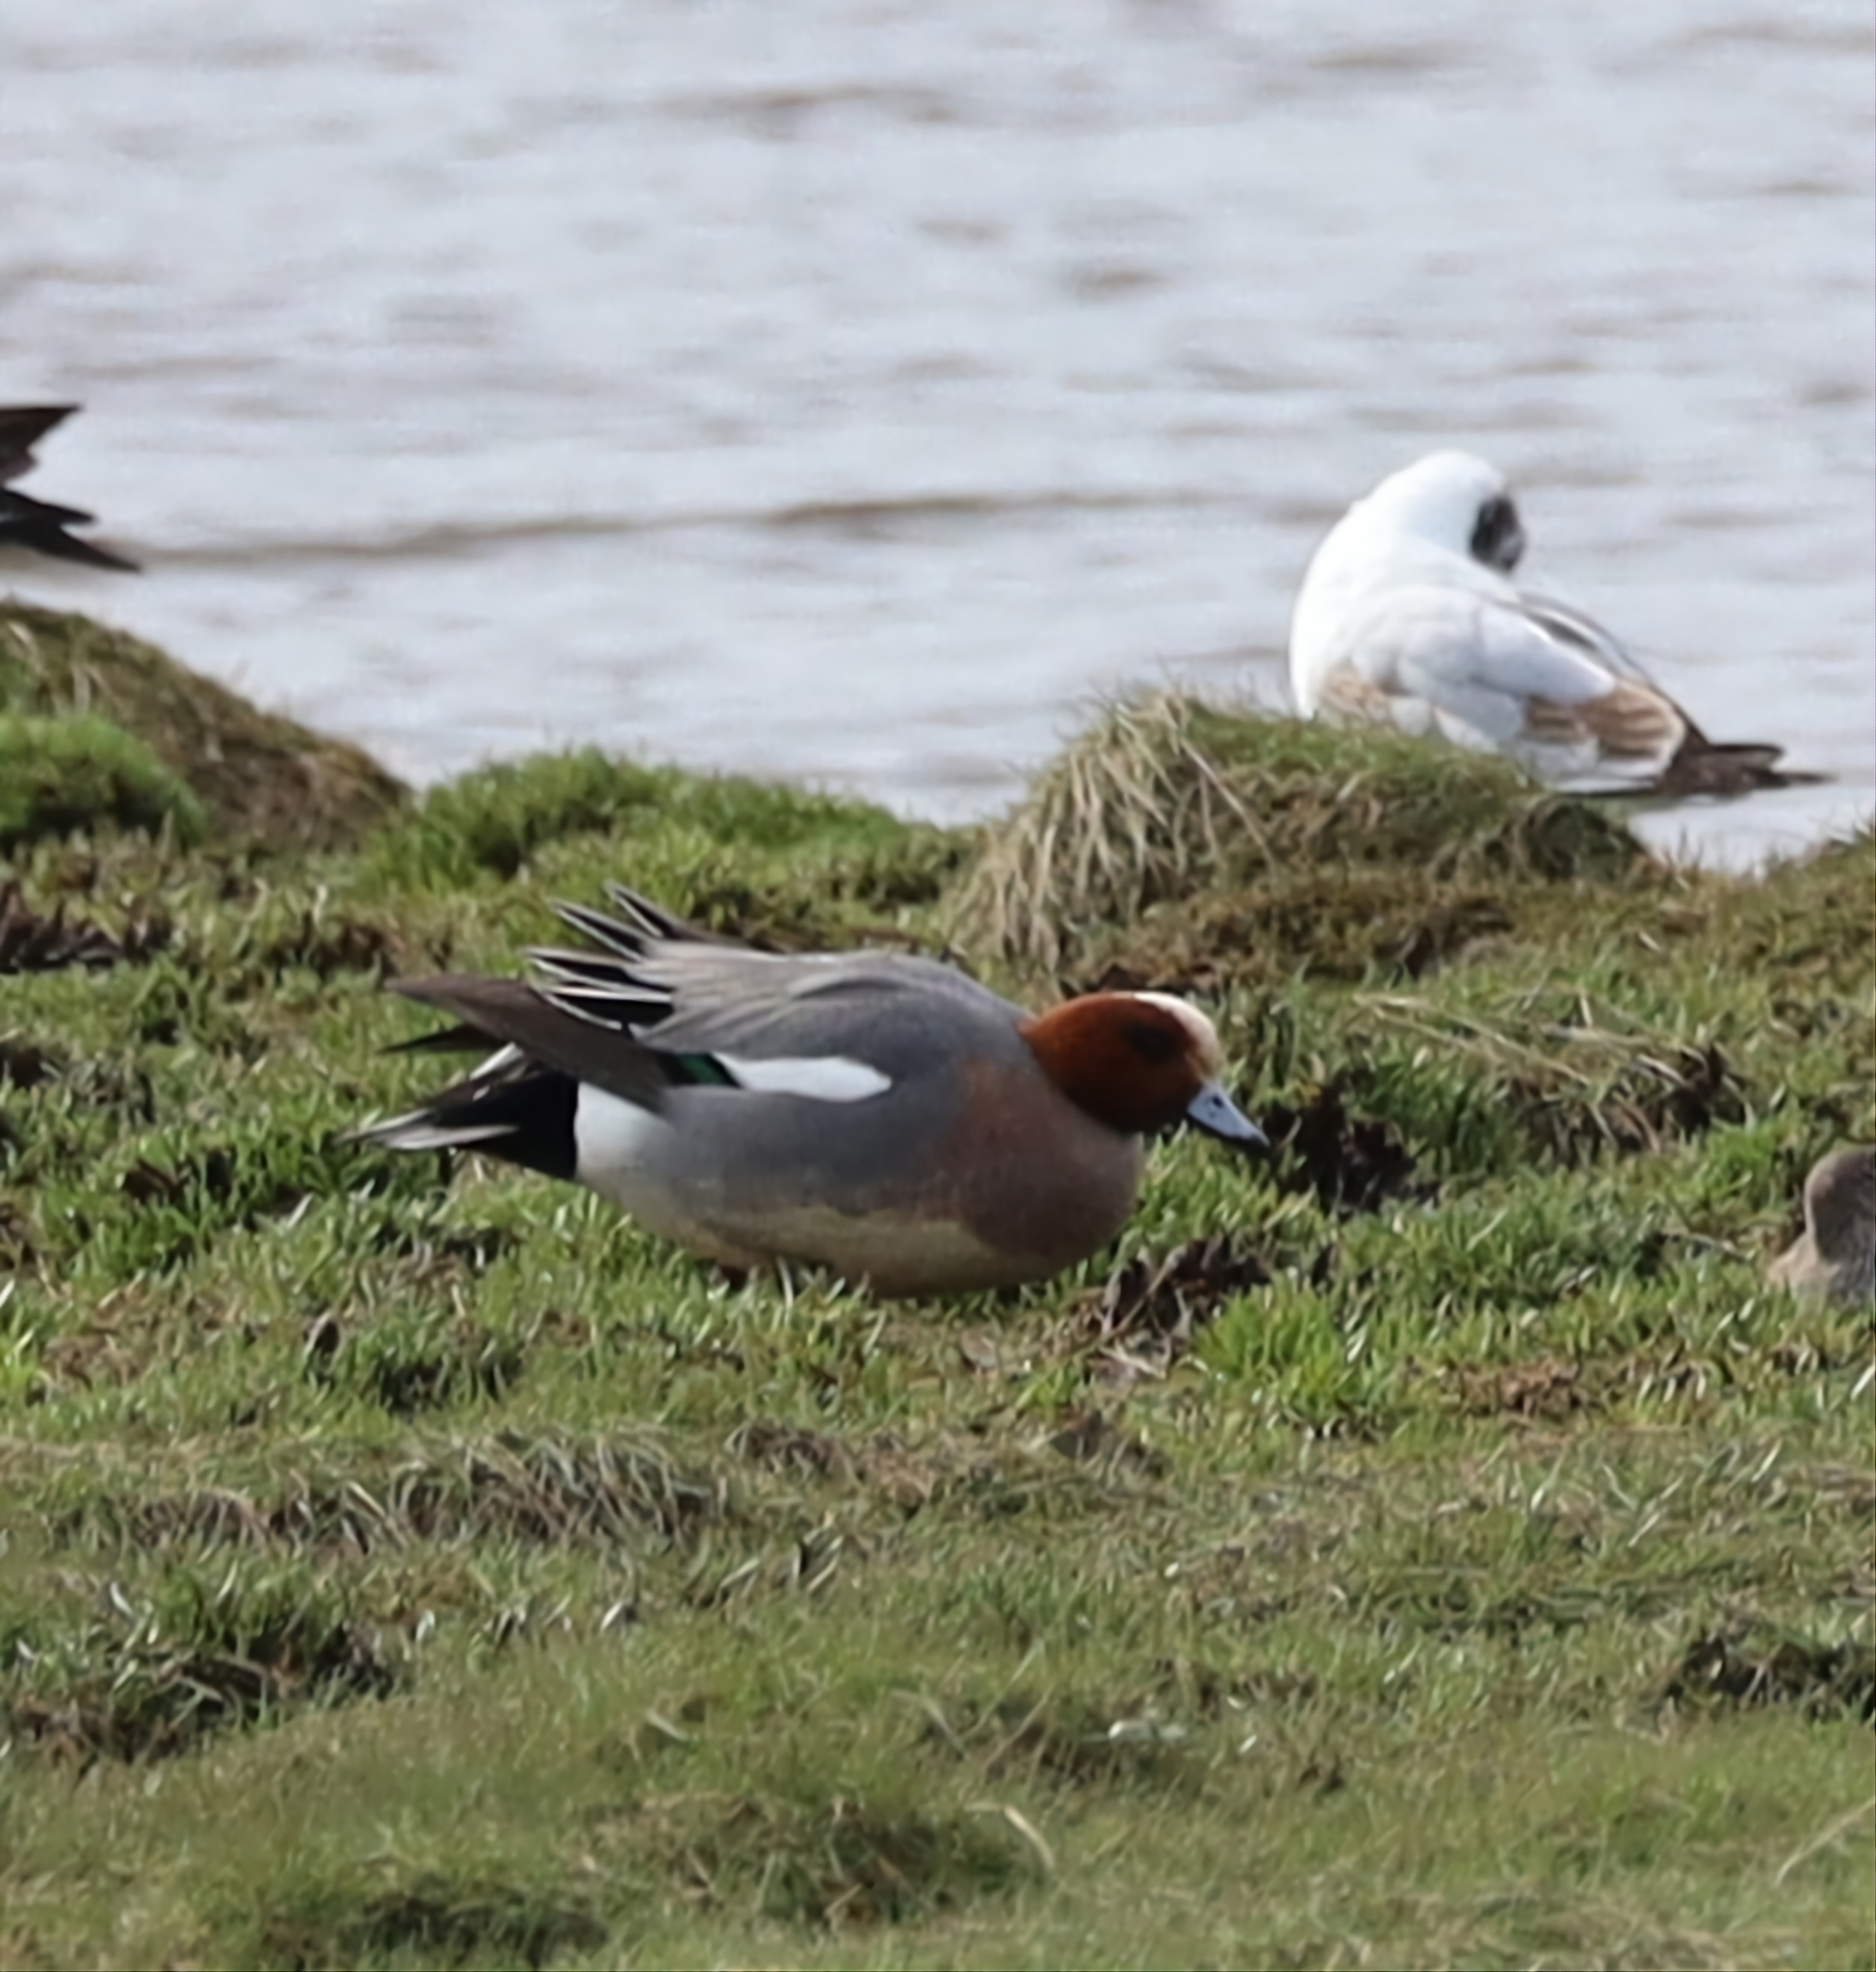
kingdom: Animalia
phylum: Chordata
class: Aves
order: Anseriformes
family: Anatidae
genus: Mareca
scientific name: Mareca penelope
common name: Eurasian wigeon
